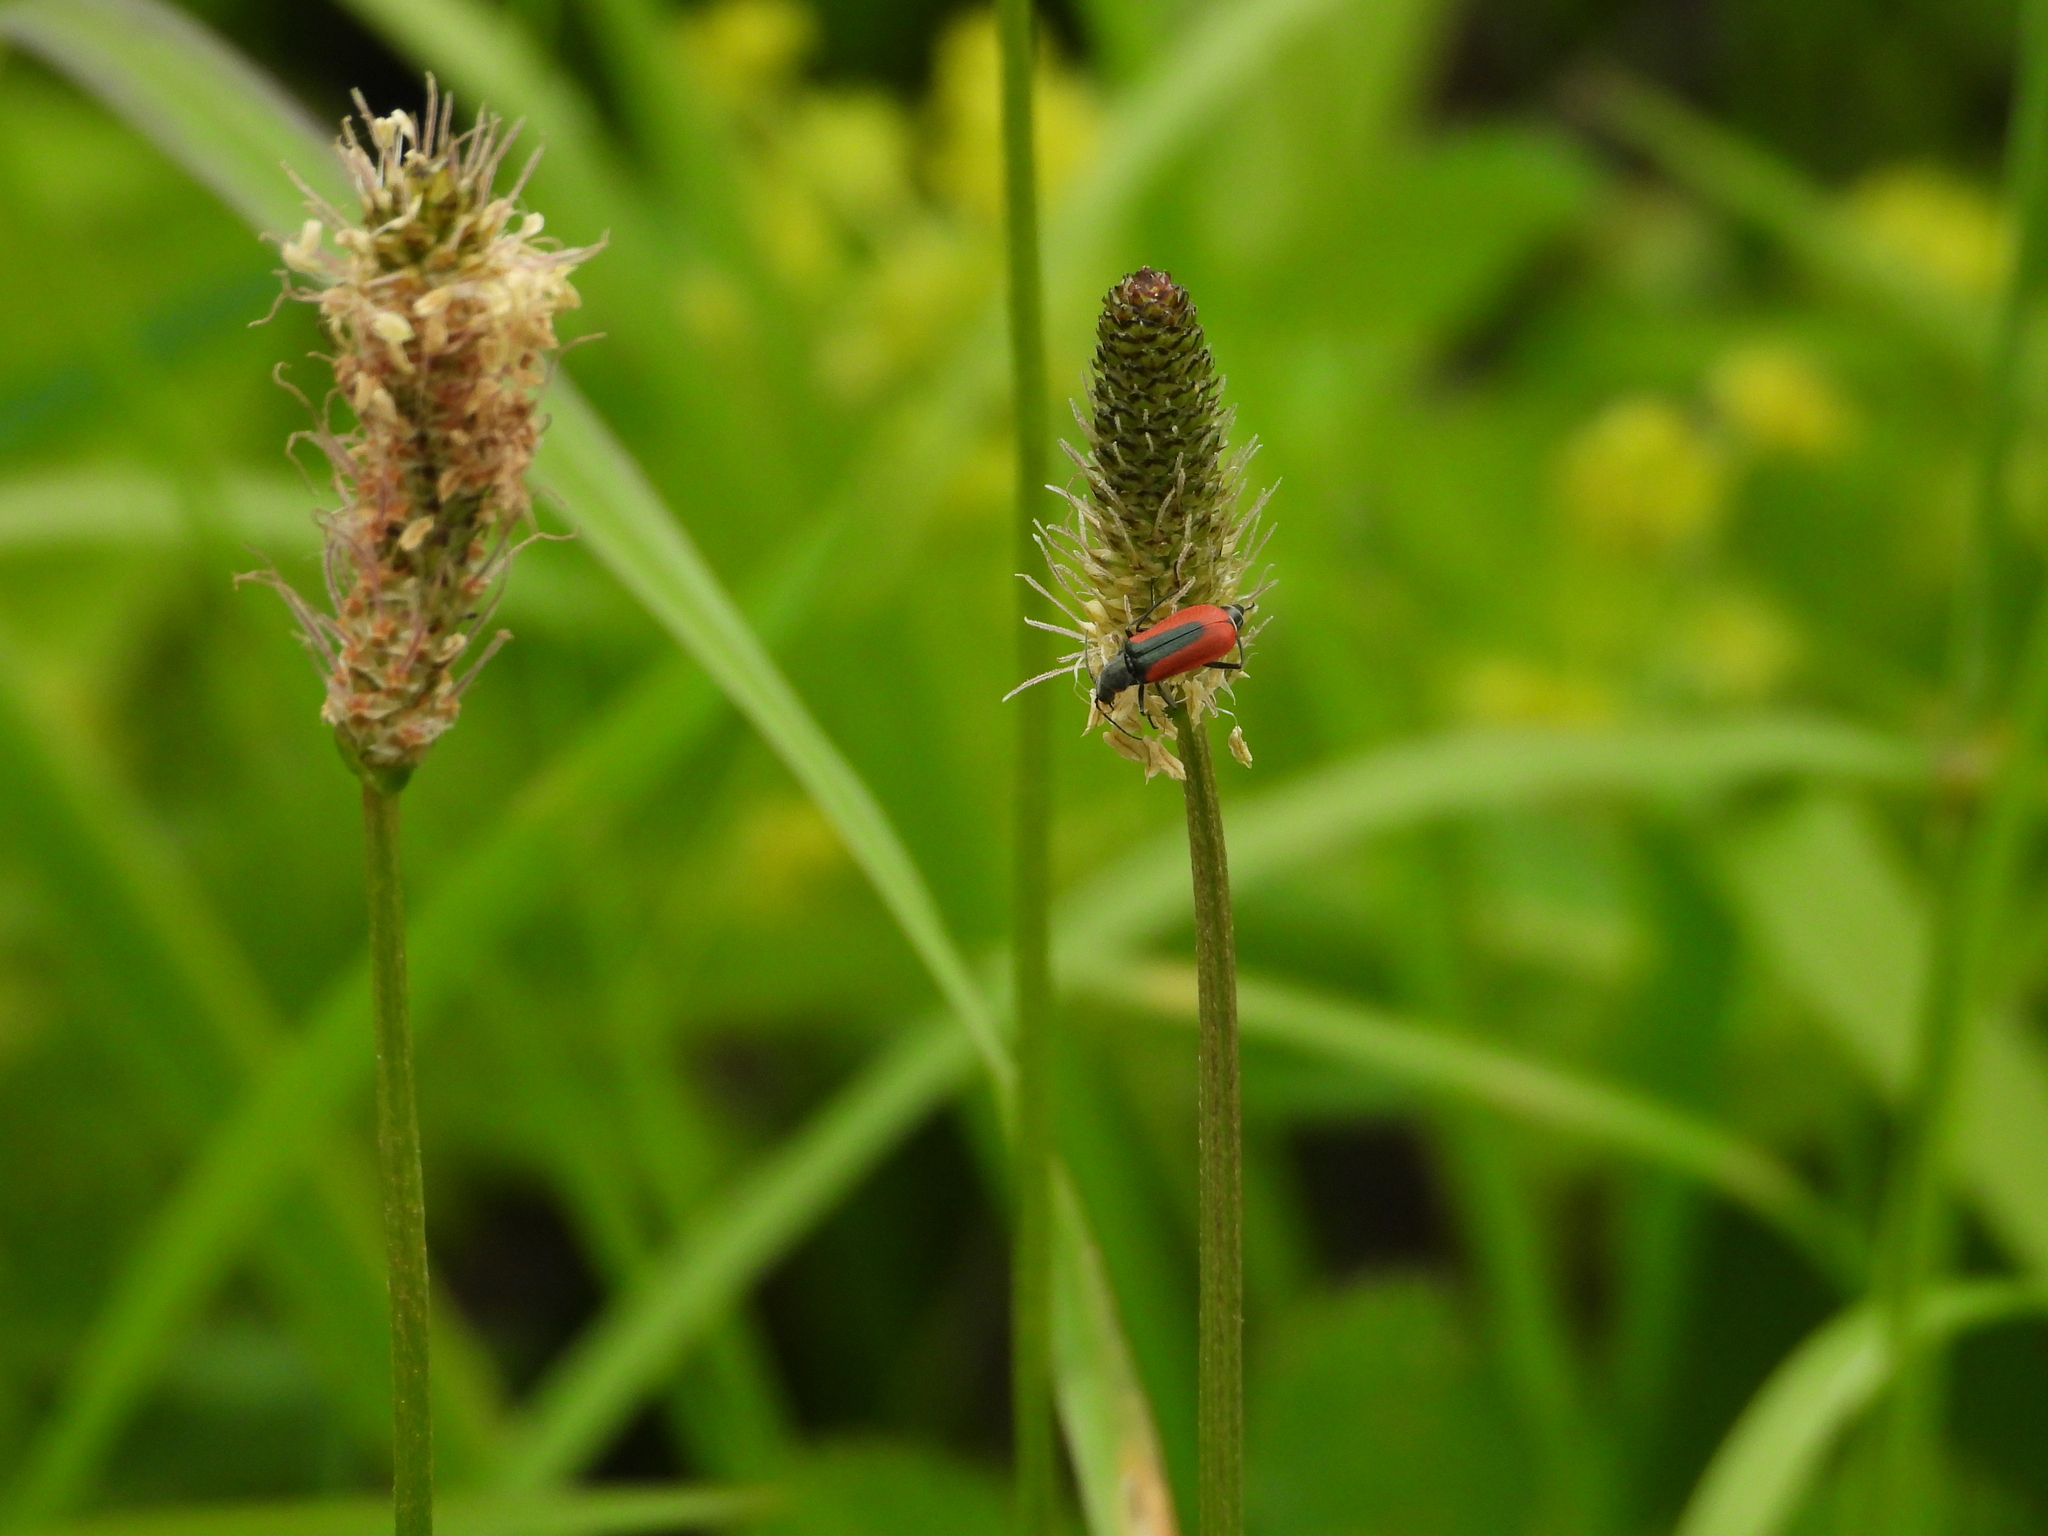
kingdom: Animalia
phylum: Arthropoda
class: Insecta
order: Coleoptera
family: Melyridae
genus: Malachius
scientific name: Malachius aeneus
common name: Scarlet malachite beetle
